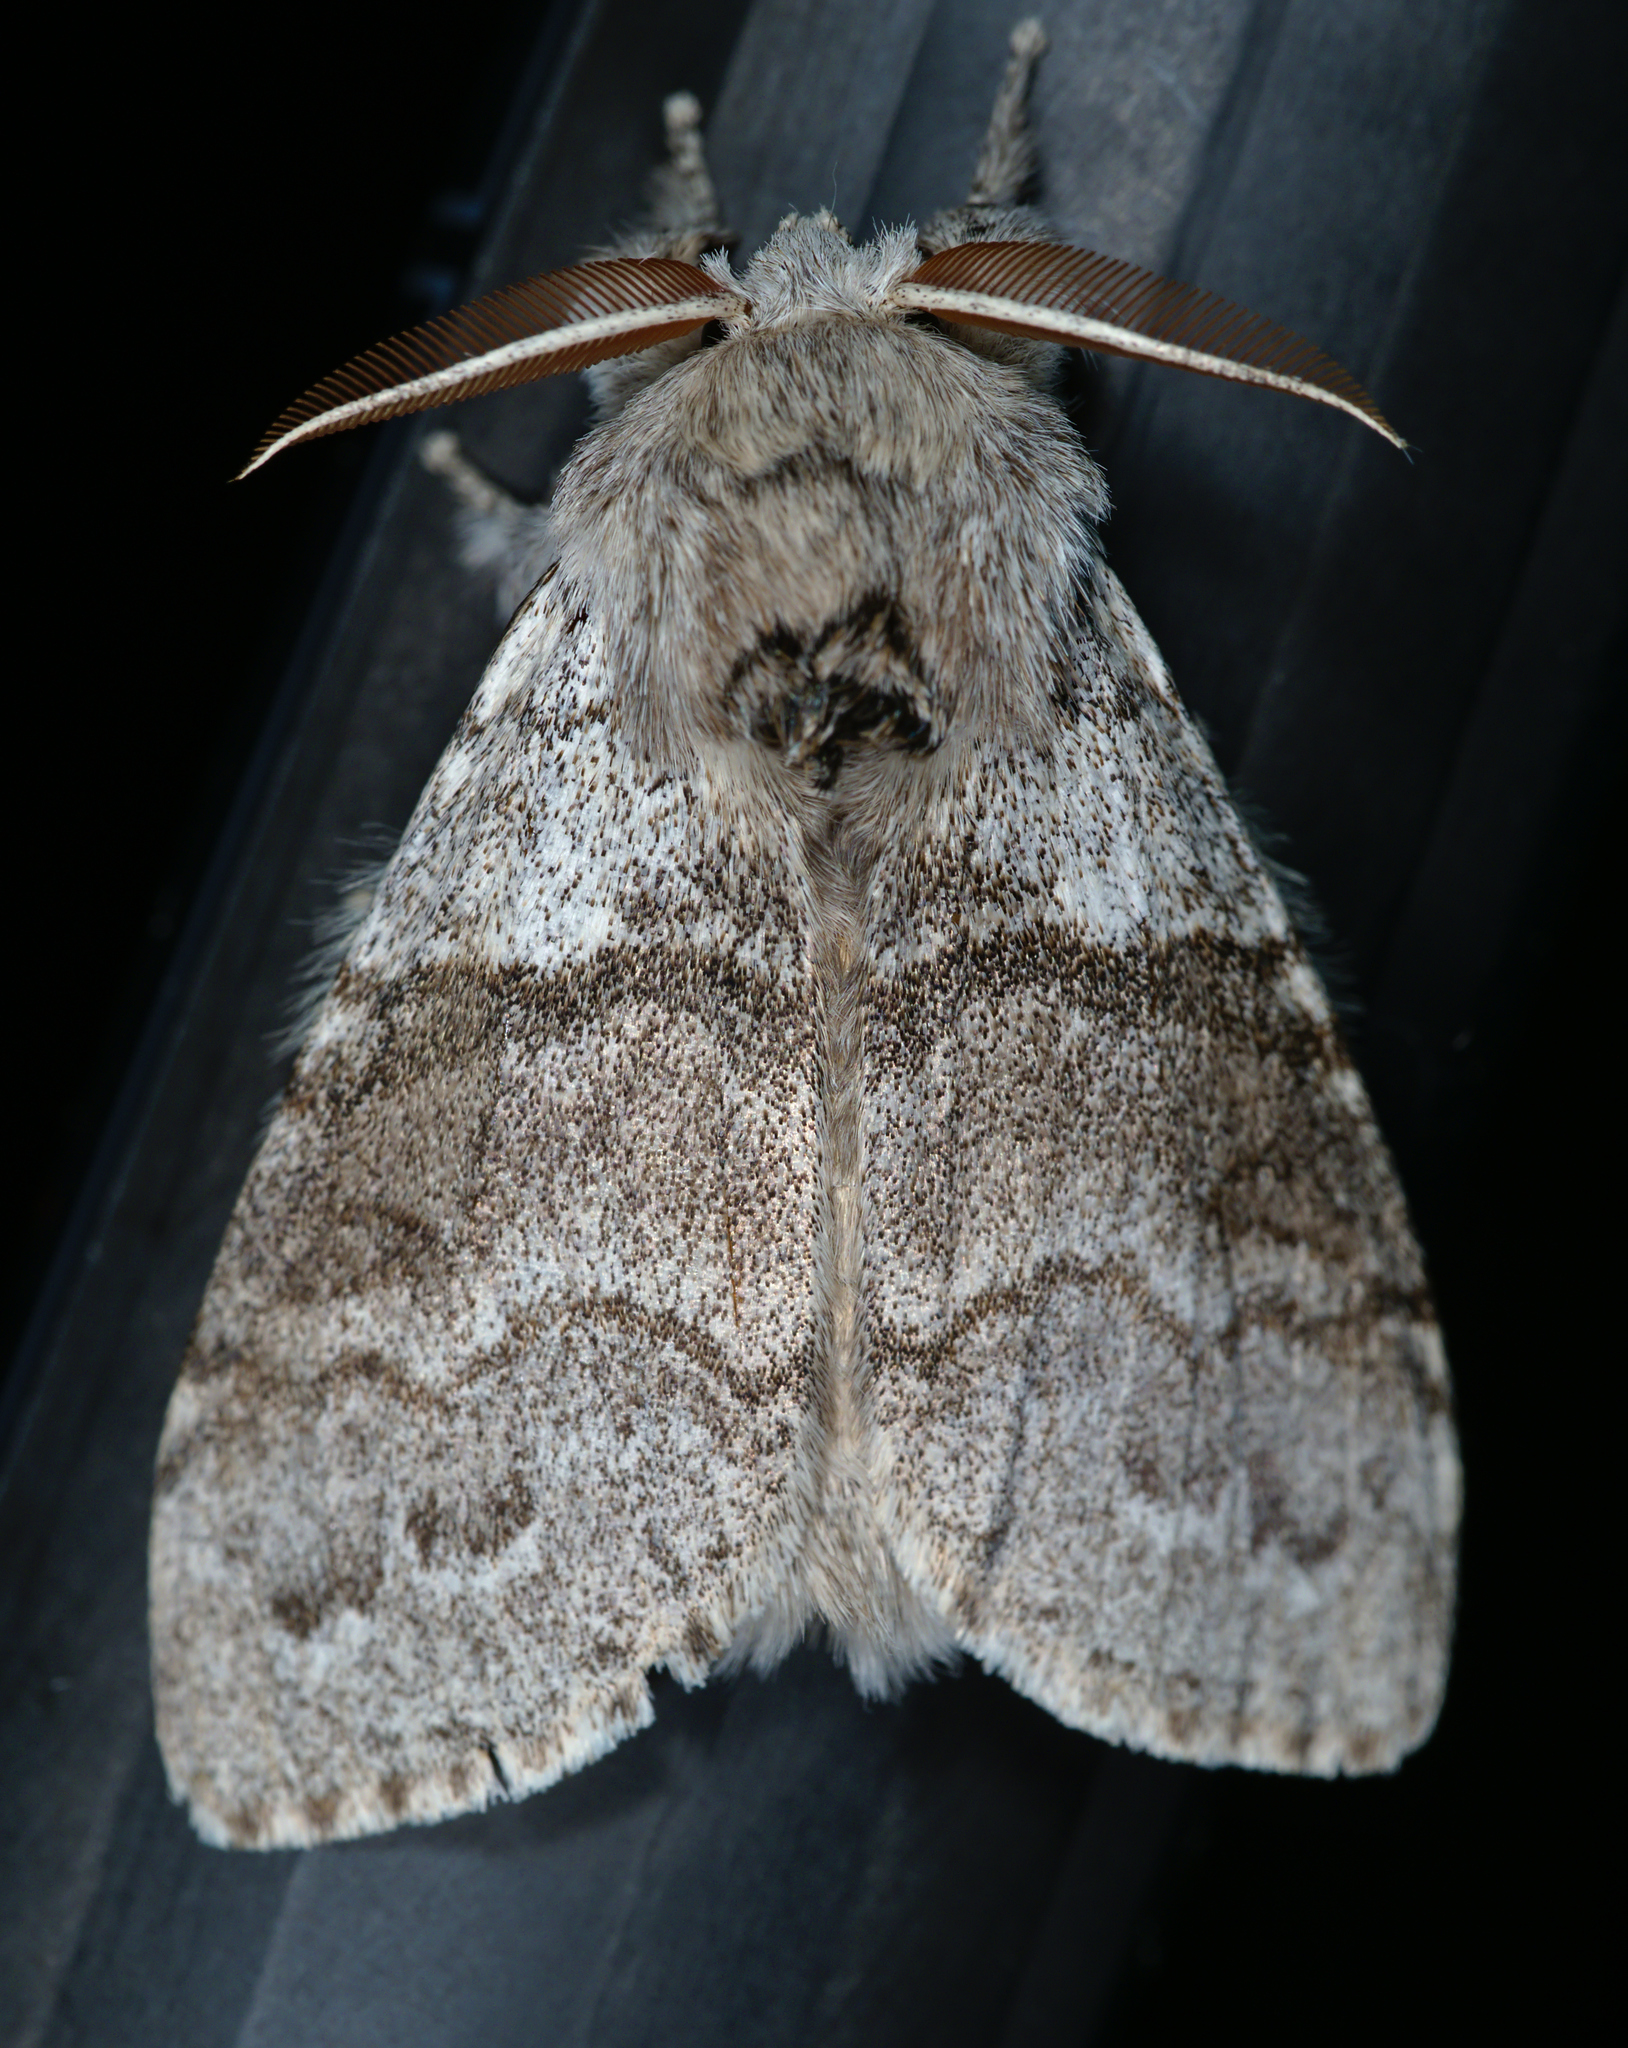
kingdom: Animalia
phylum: Arthropoda
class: Insecta
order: Lepidoptera
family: Erebidae
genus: Calliteara
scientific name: Calliteara pudibunda
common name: Pale tussock
